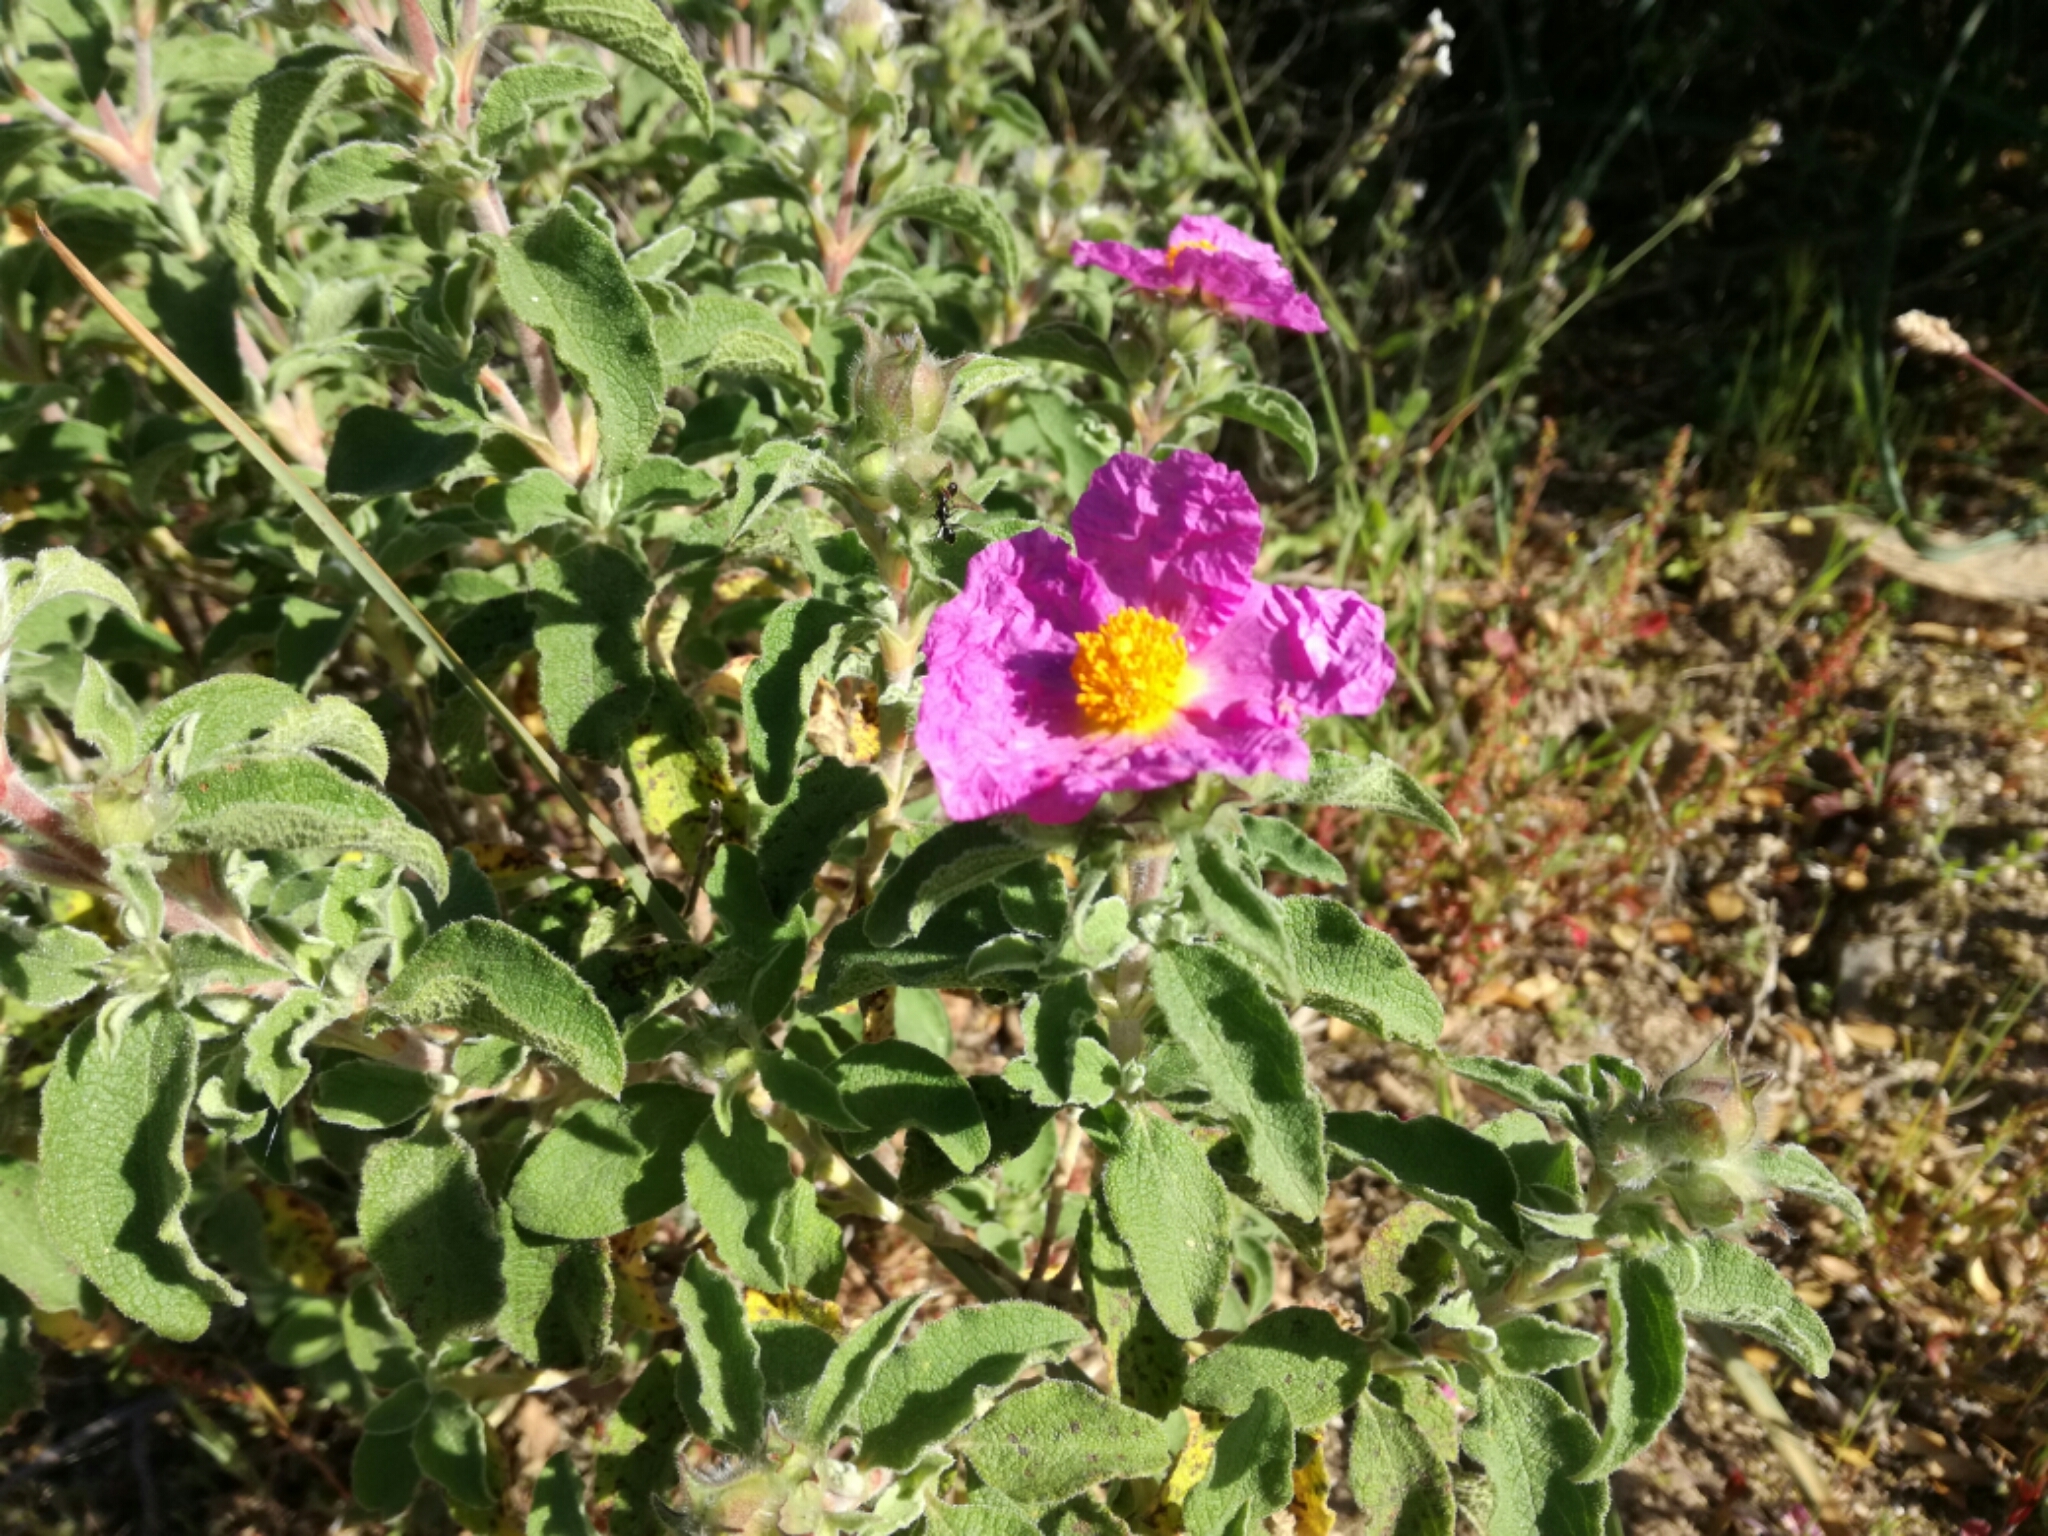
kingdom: Plantae
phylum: Tracheophyta
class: Magnoliopsida
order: Malvales
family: Cistaceae
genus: Cistus
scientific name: Cistus creticus
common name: Cretan rockrose
